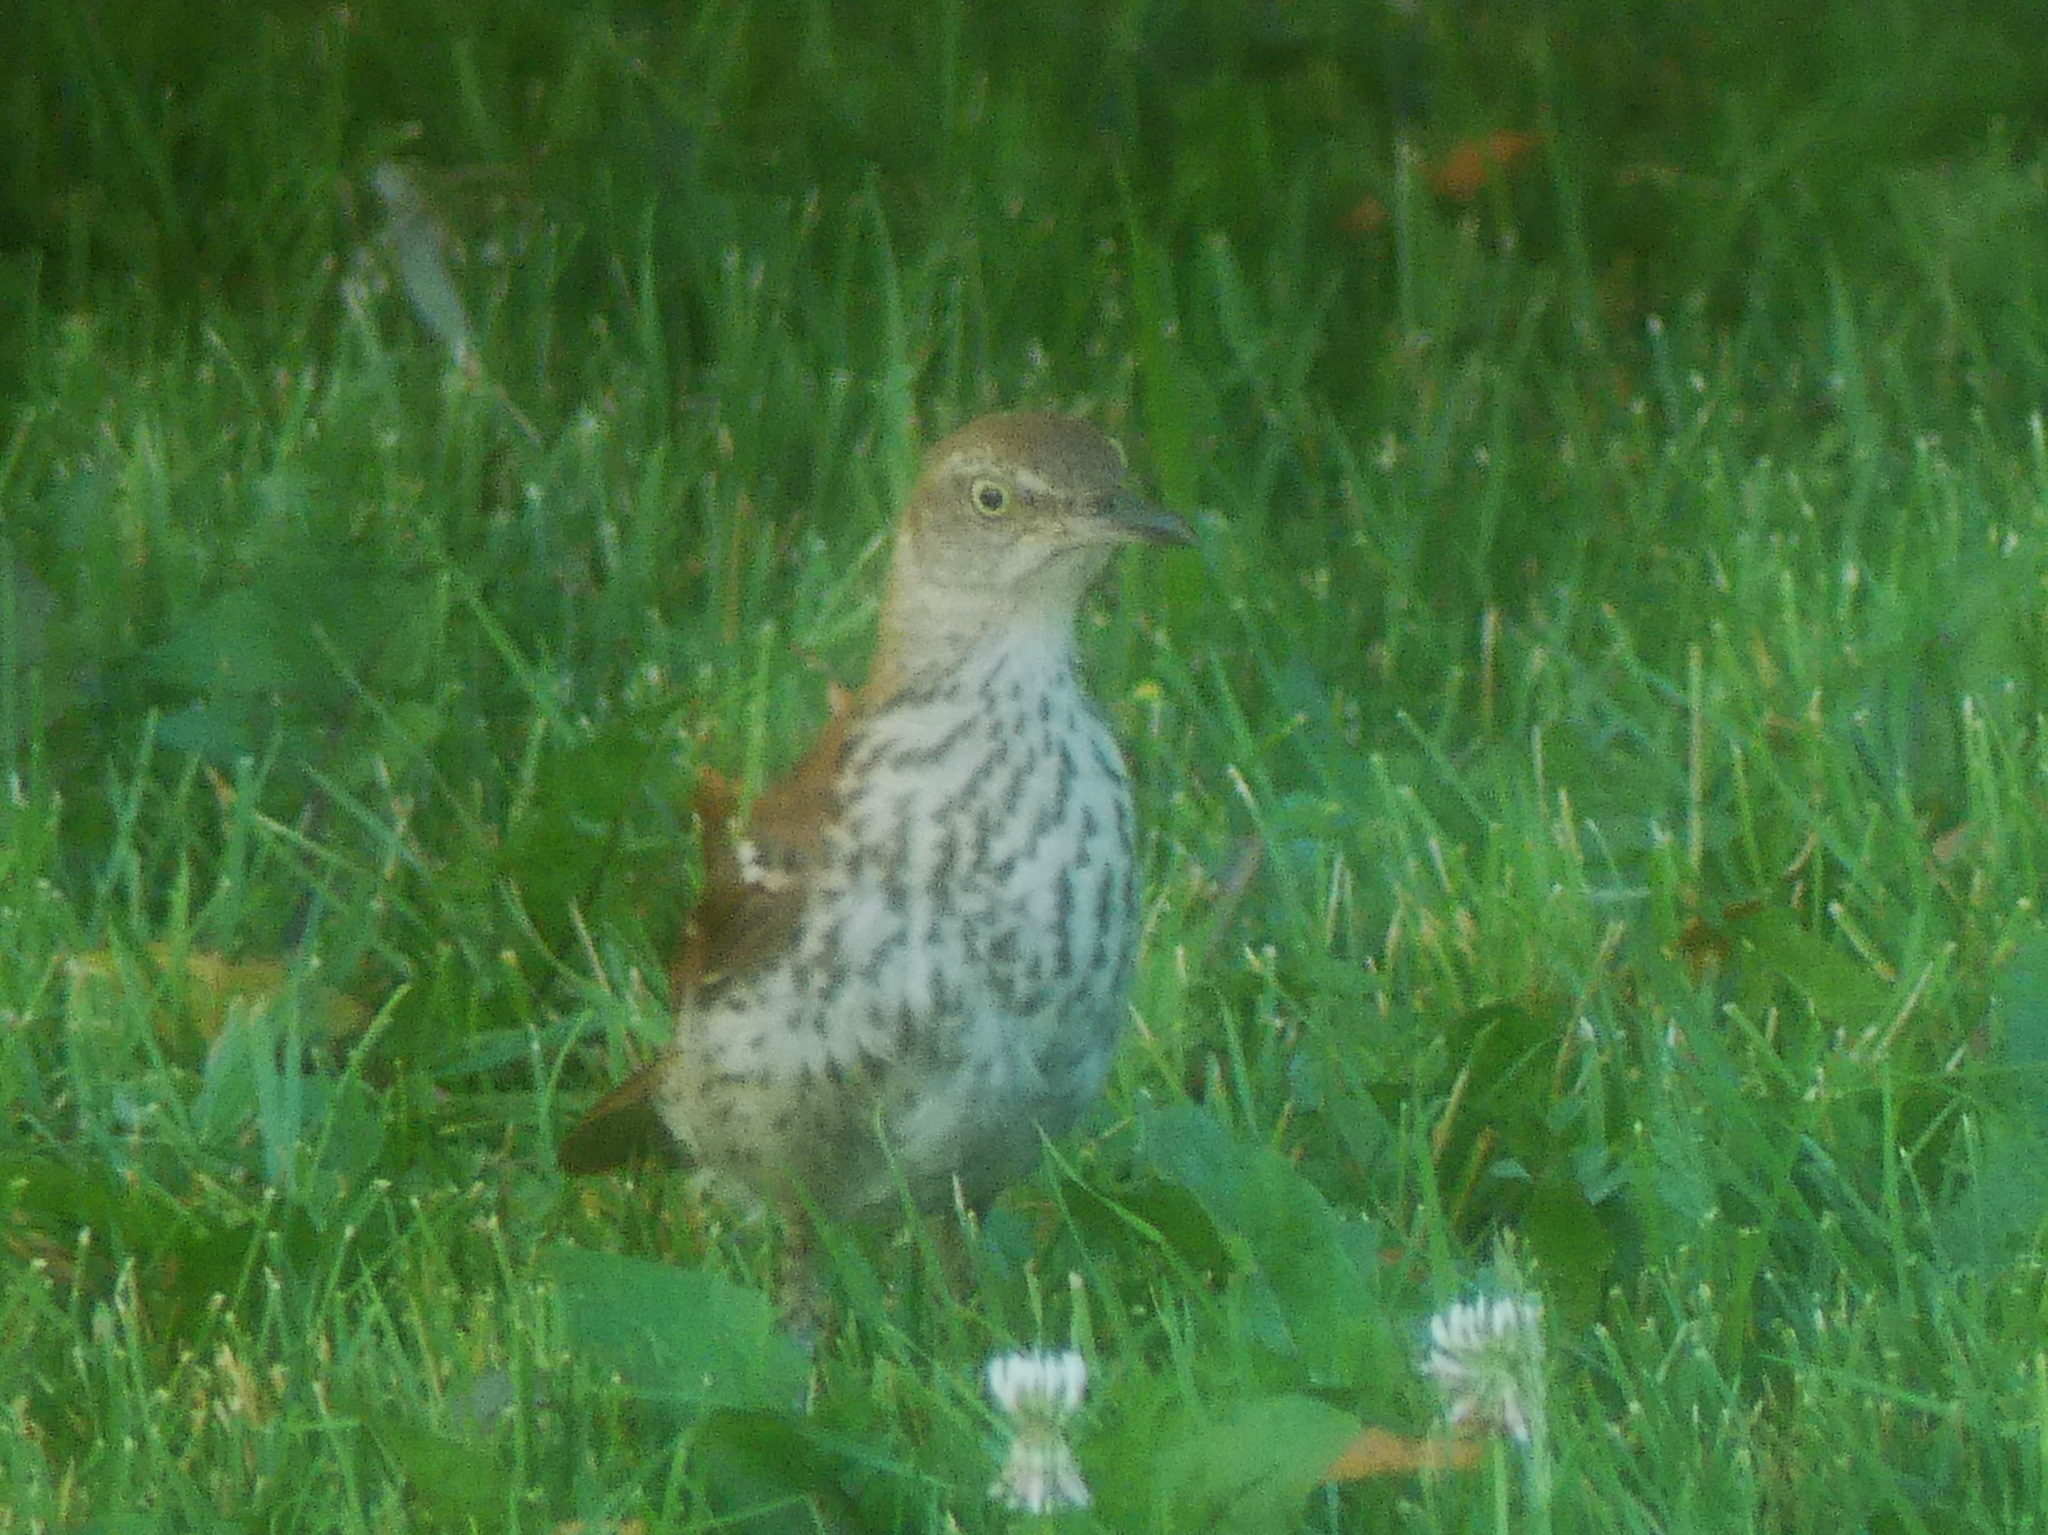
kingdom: Animalia
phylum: Chordata
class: Aves
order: Passeriformes
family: Mimidae
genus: Toxostoma
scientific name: Toxostoma rufum
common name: Brown thrasher
